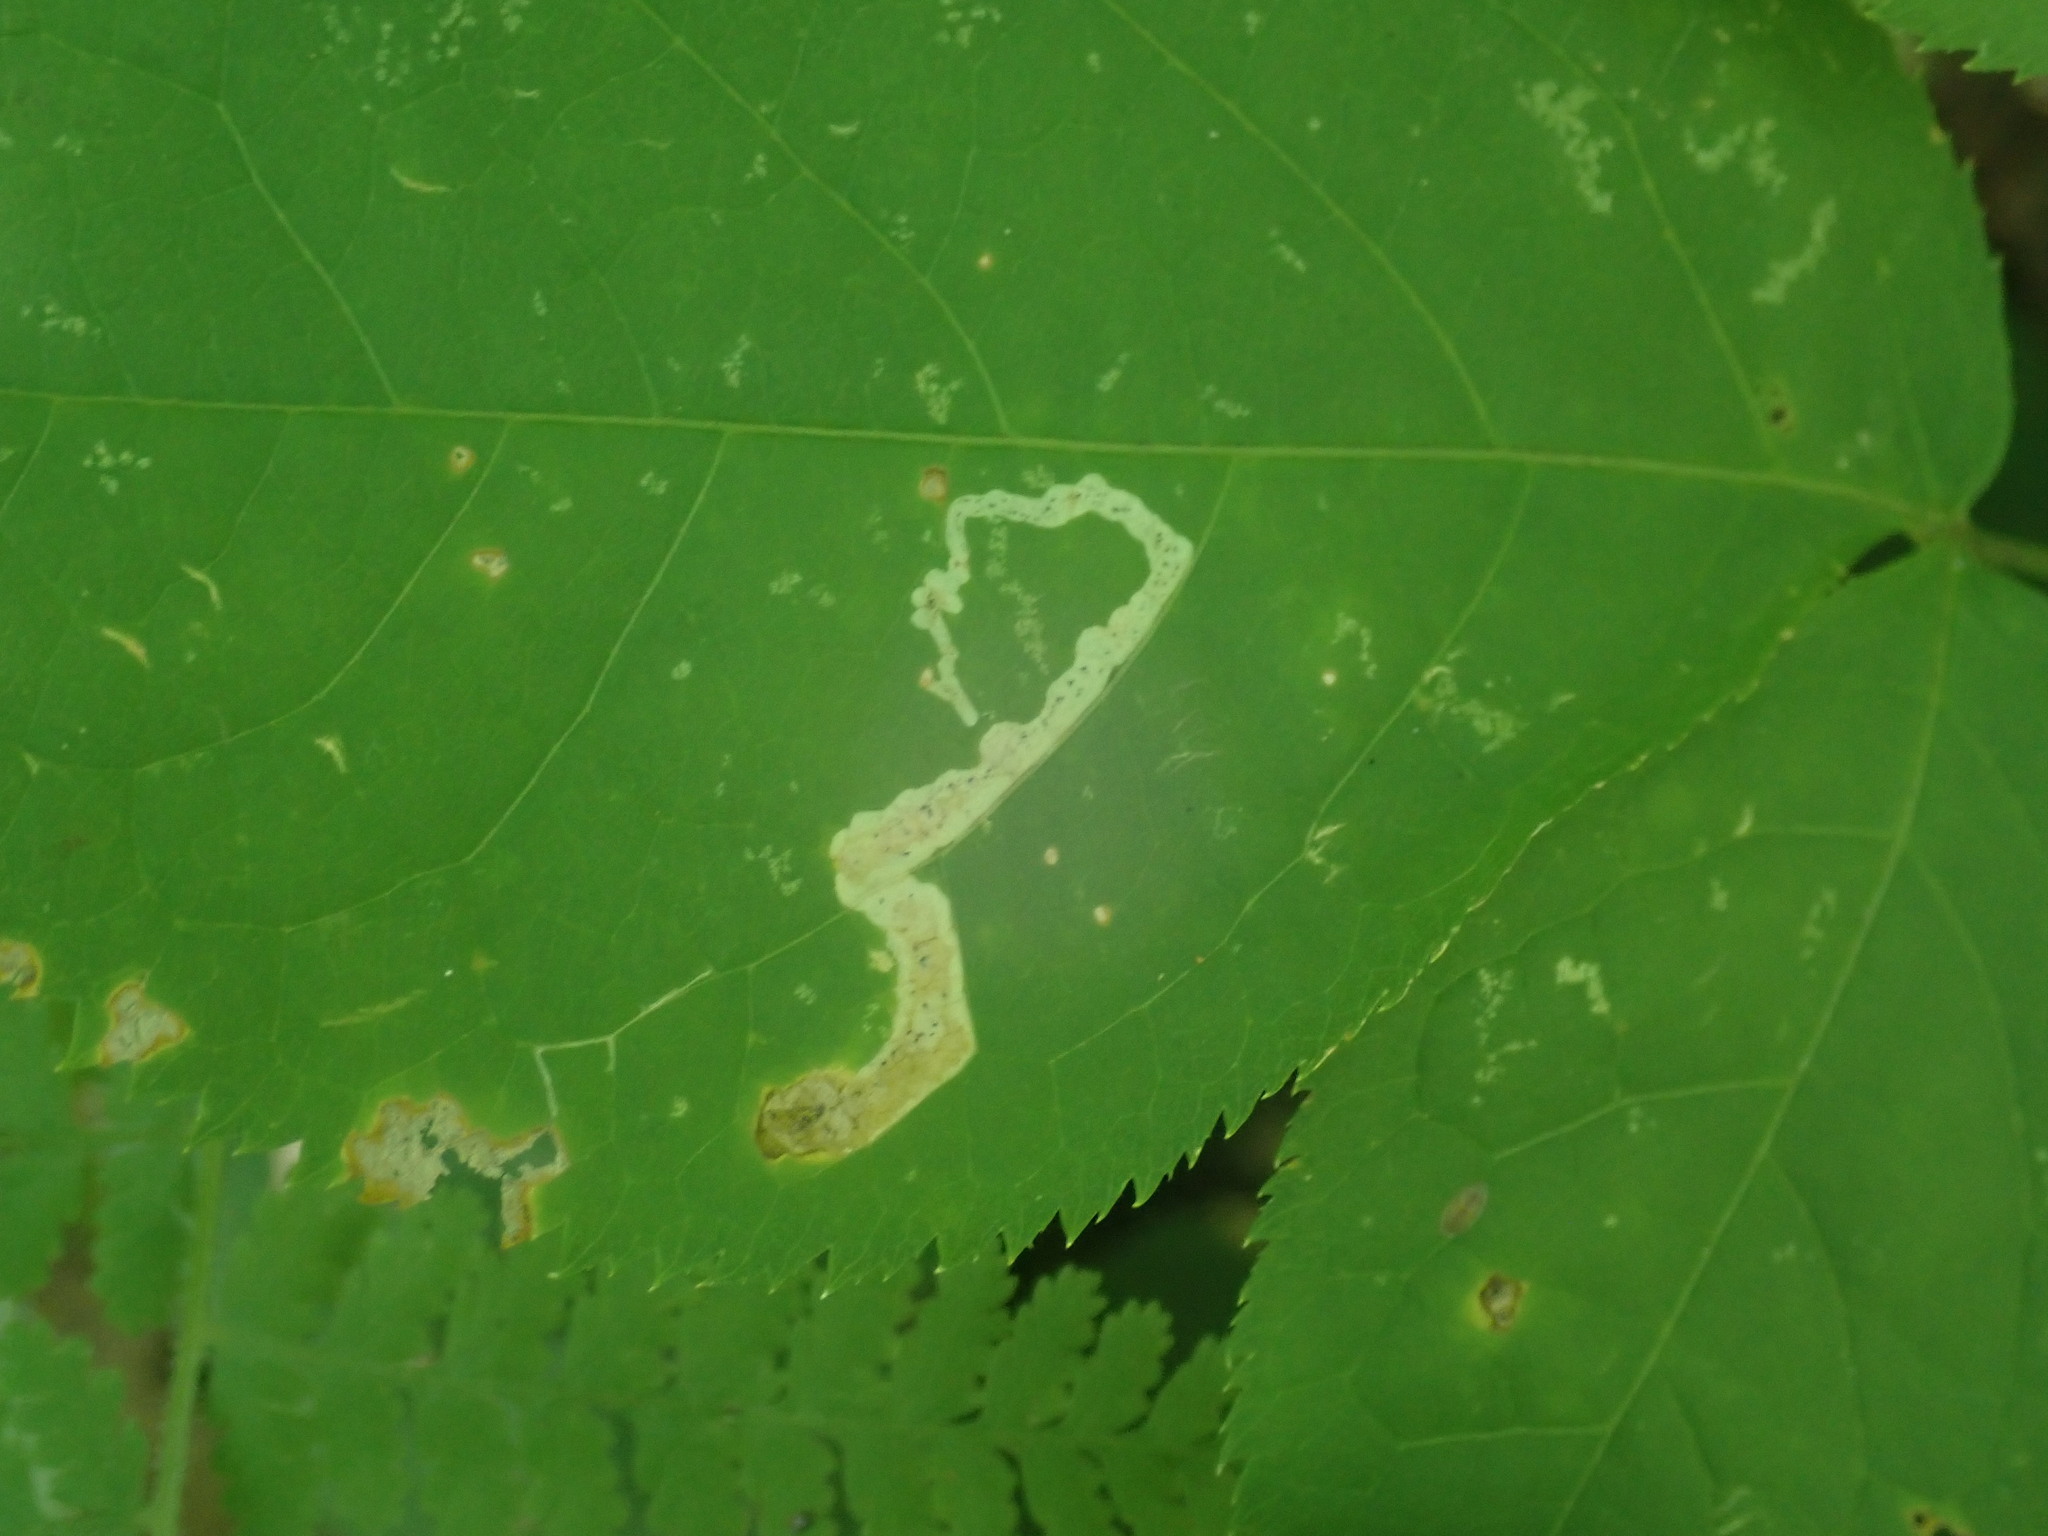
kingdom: Animalia
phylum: Arthropoda
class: Insecta
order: Diptera
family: Agromyzidae
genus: Phytomyza
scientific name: Phytomyza aralivora
